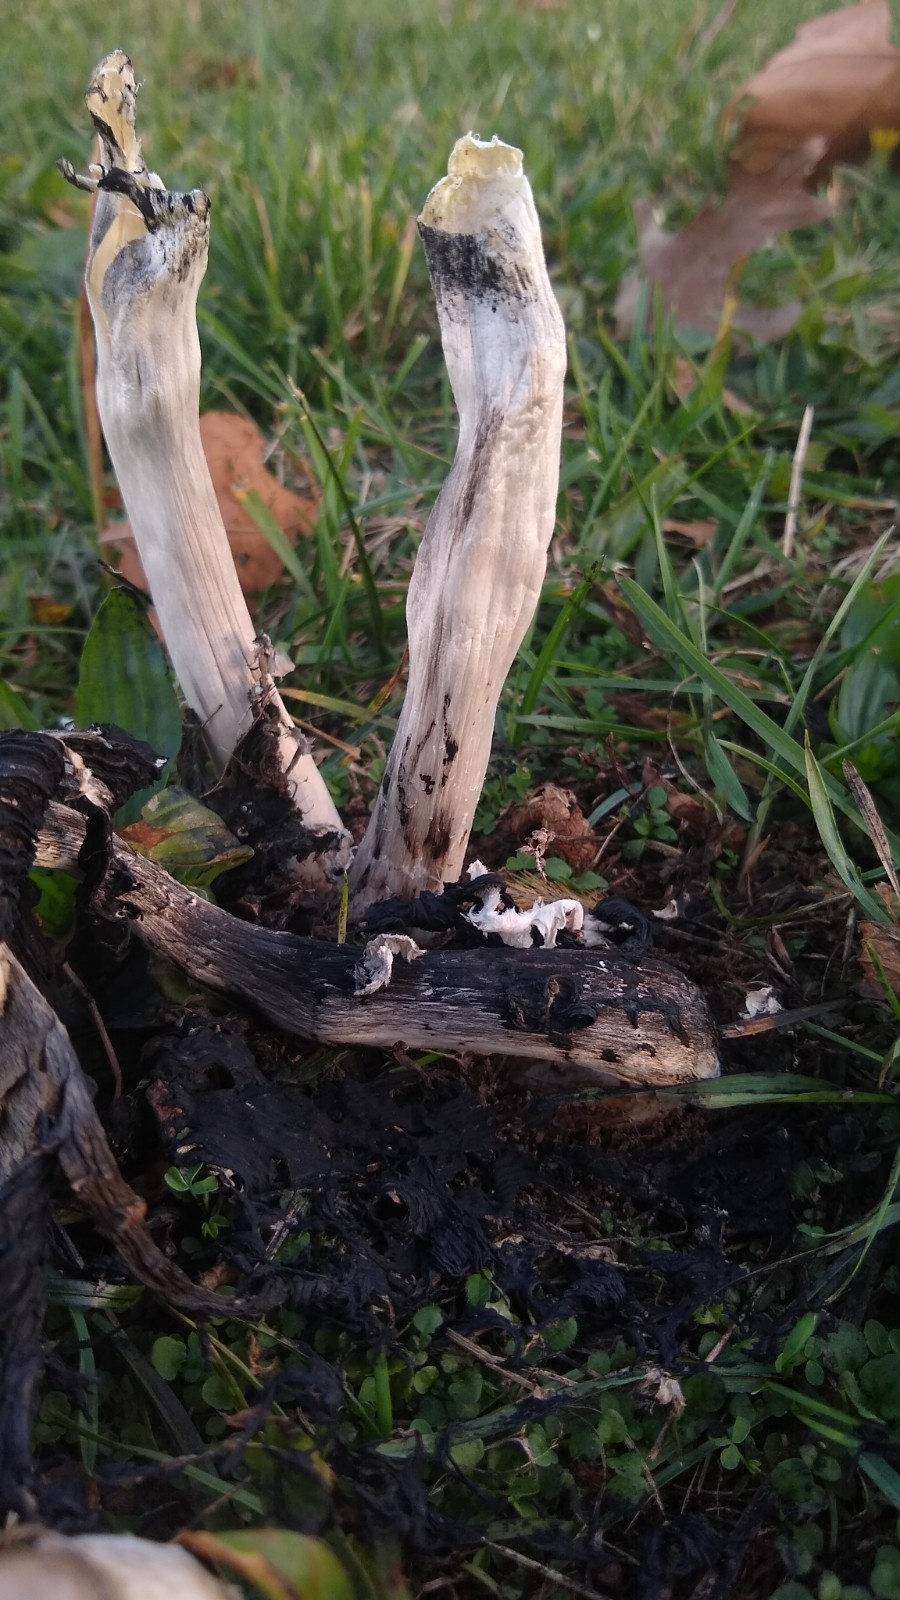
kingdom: Fungi
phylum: Basidiomycota
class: Agaricomycetes
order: Agaricales
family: Agaricaceae
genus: Coprinus
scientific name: Coprinus comatus
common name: Lawyer's wig
